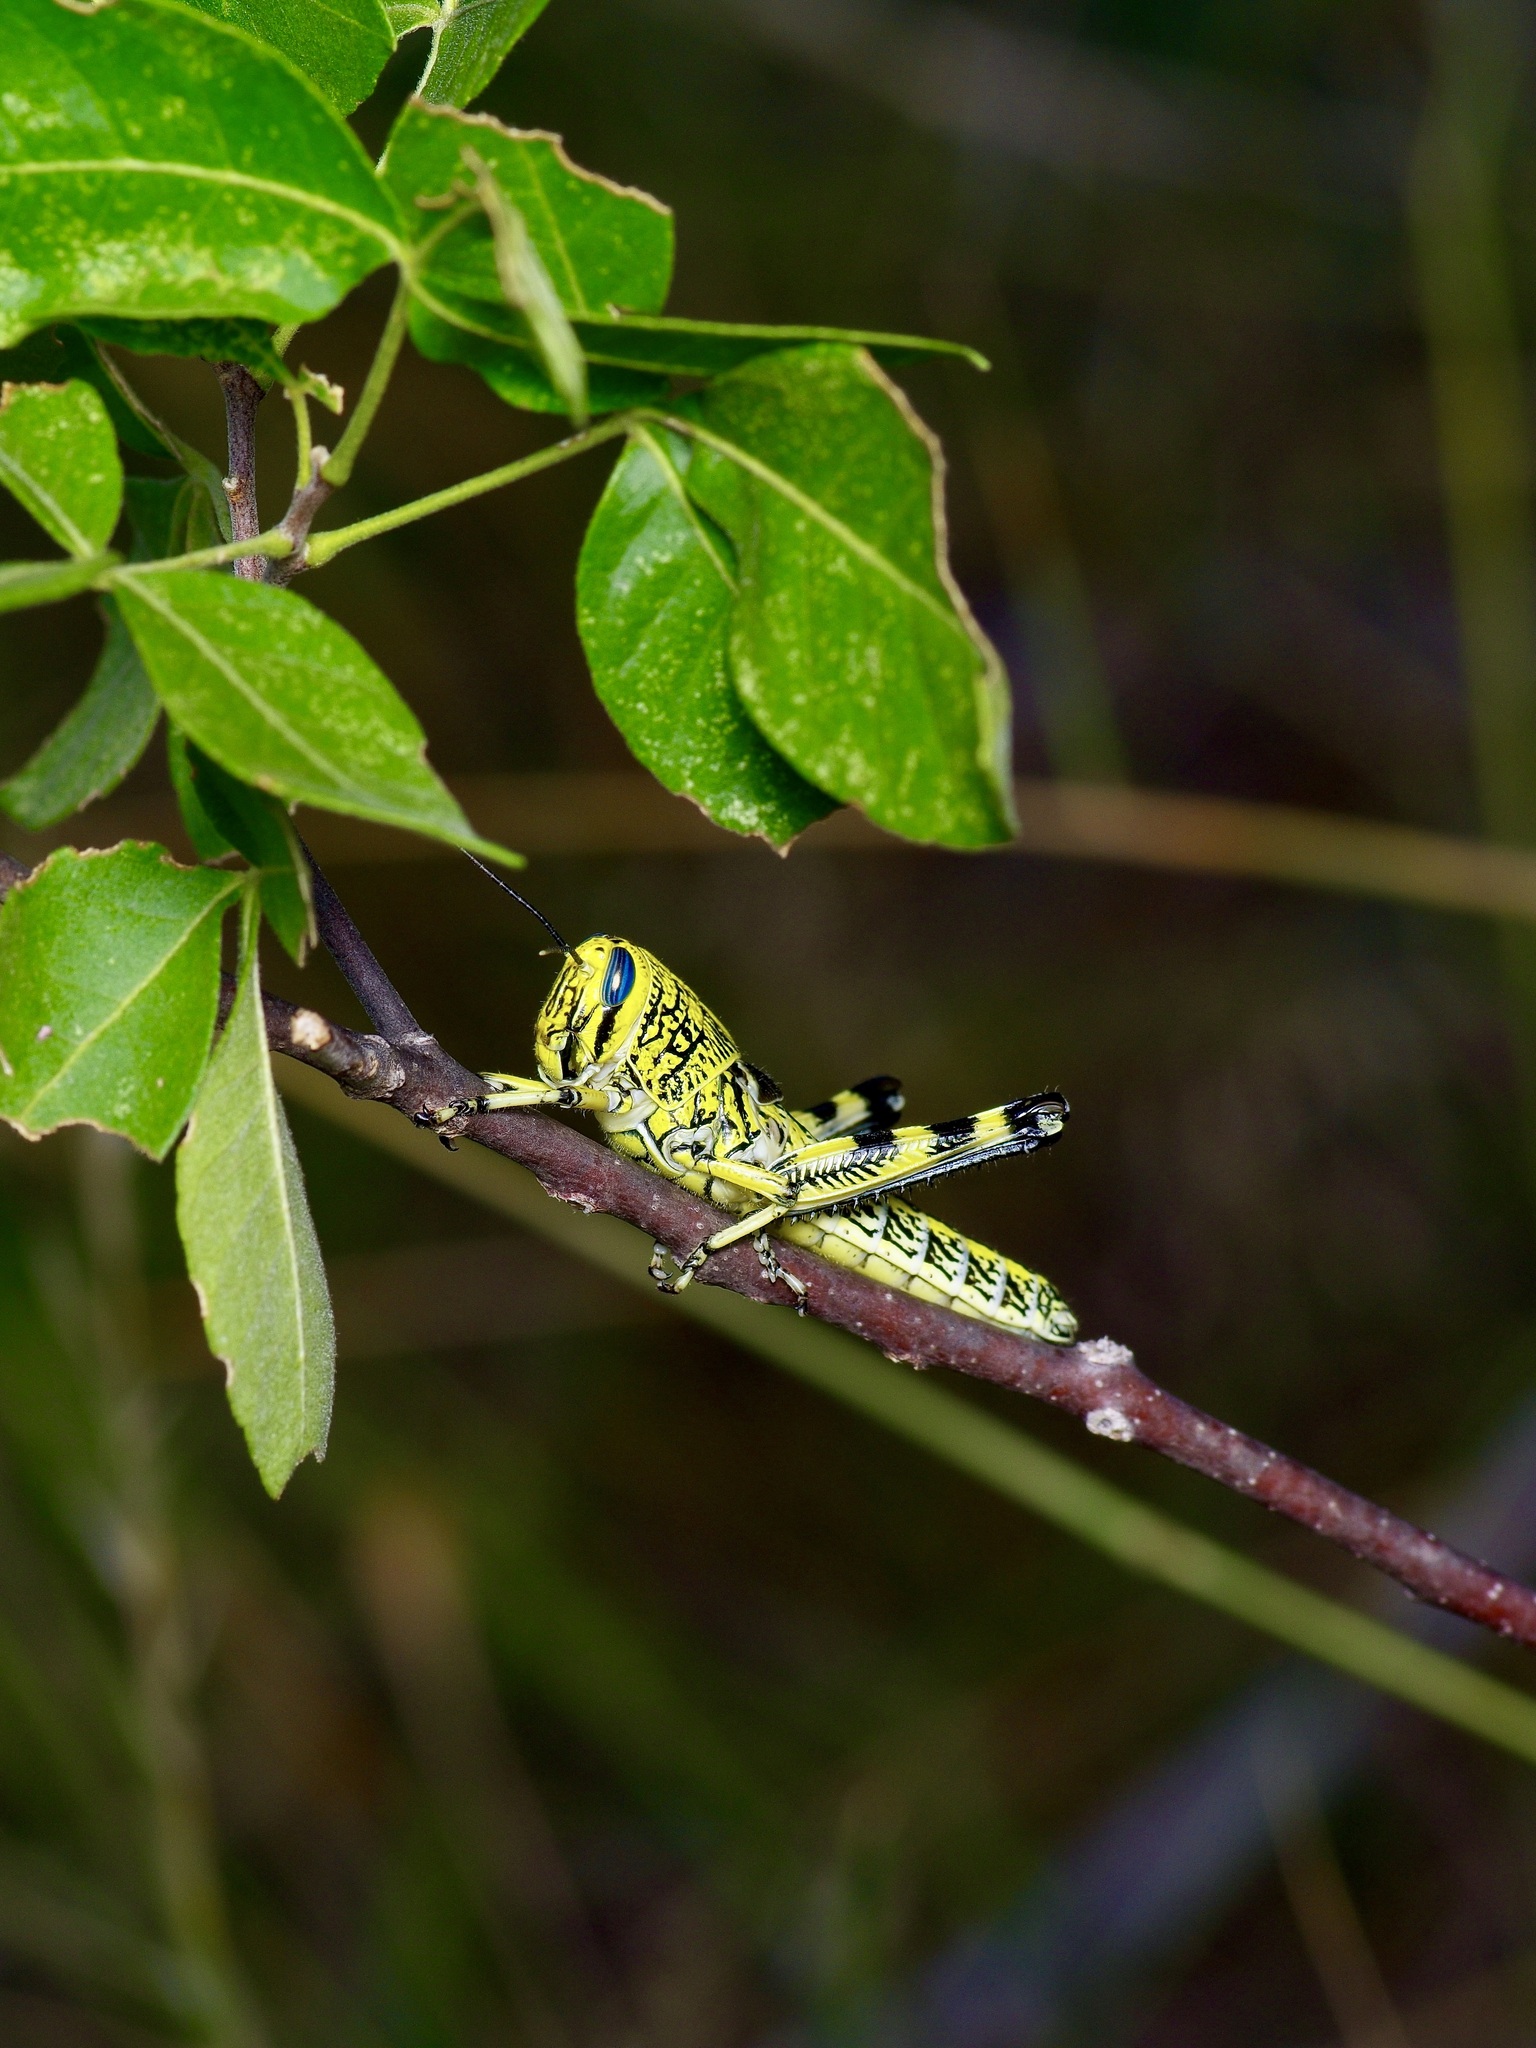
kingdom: Animalia
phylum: Arthropoda
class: Insecta
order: Orthoptera
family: Acrididae
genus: Schistocerca
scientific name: Schistocerca lineata
